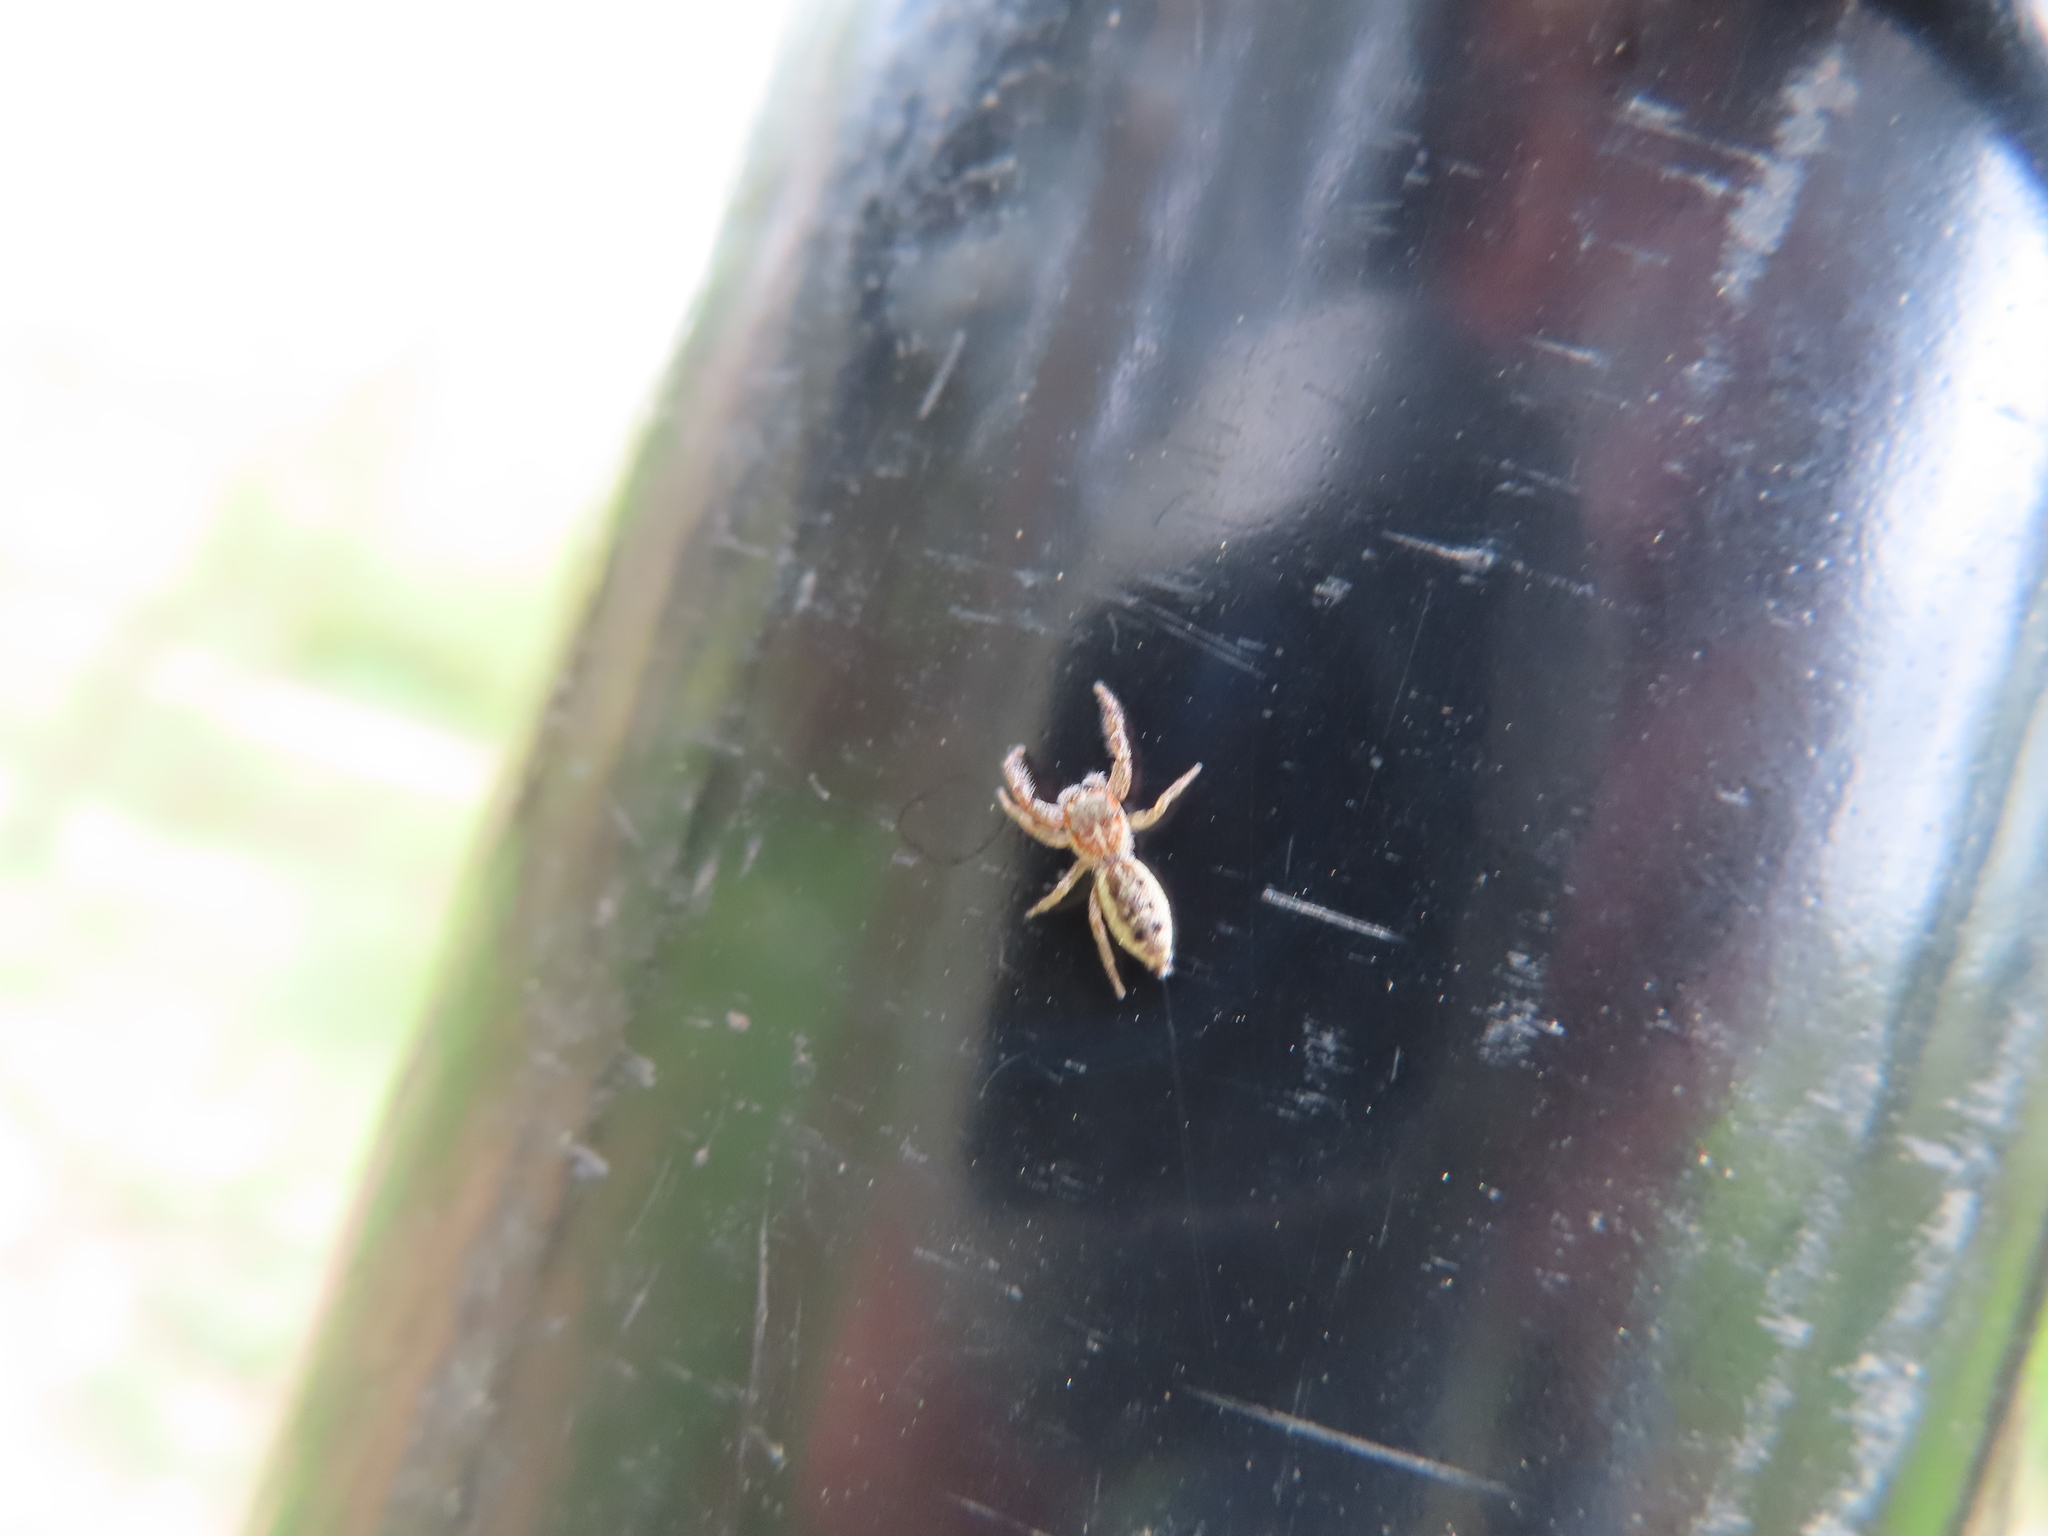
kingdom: Animalia
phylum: Arthropoda
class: Arachnida
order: Araneae
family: Salticidae
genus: Hentzia
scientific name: Hentzia palmarum
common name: Common hentz jumping spider
